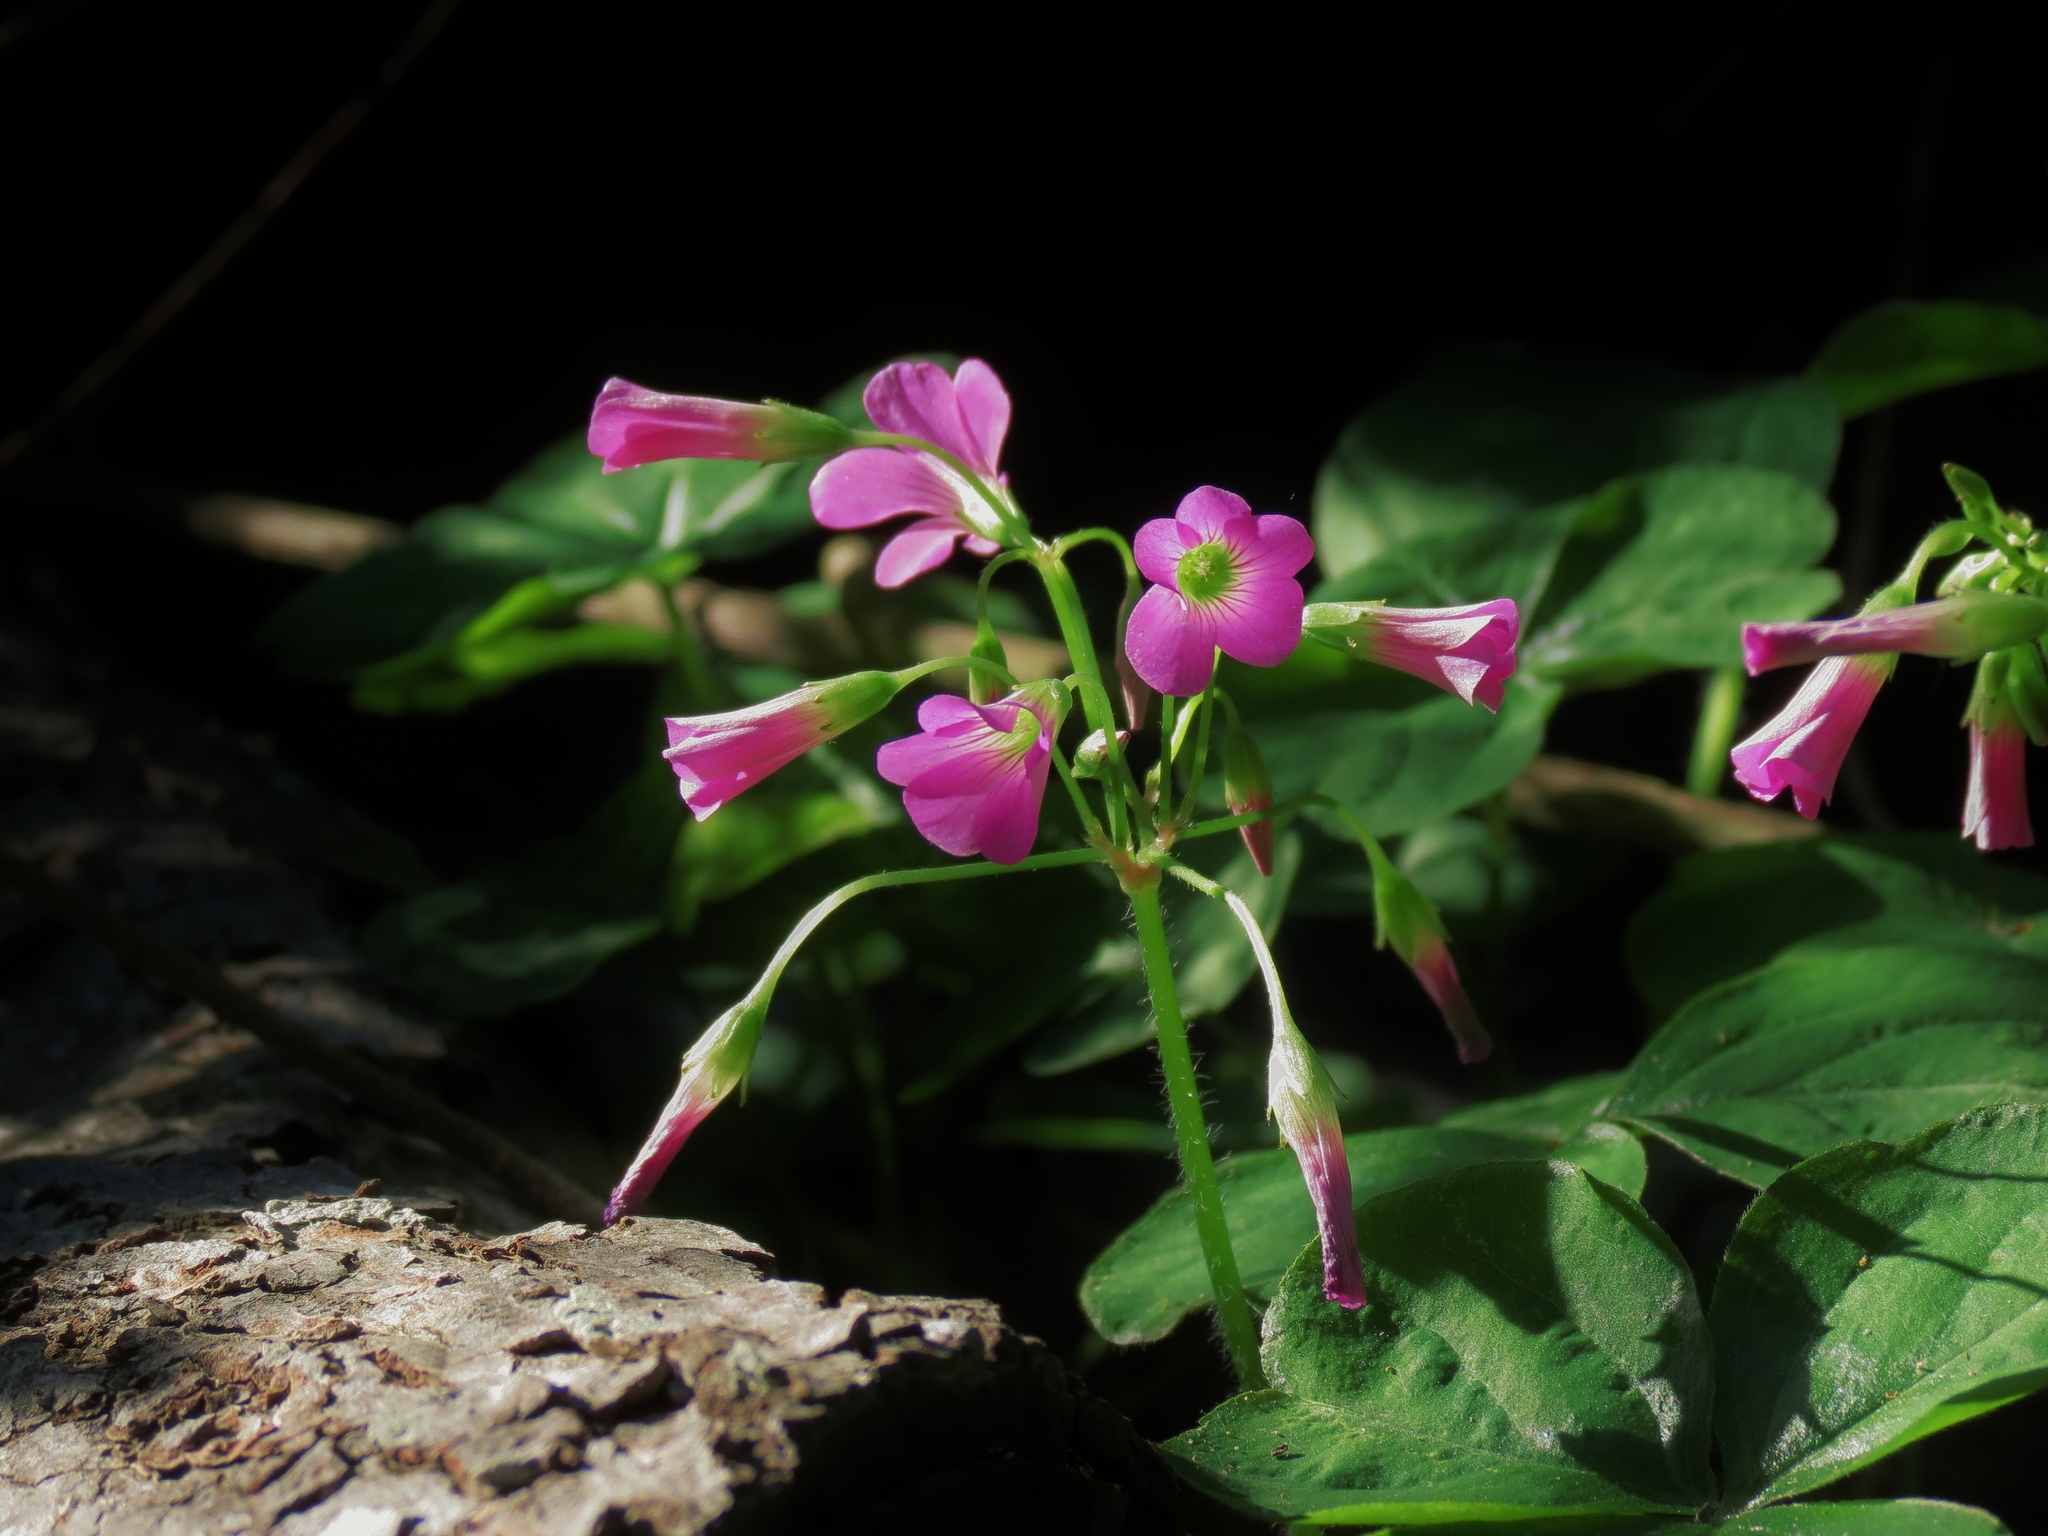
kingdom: Plantae
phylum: Tracheophyta
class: Magnoliopsida
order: Oxalidales
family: Oxalidaceae
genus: Oxalis
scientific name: Oxalis debilis
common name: Large-flowered pink-sorrel
